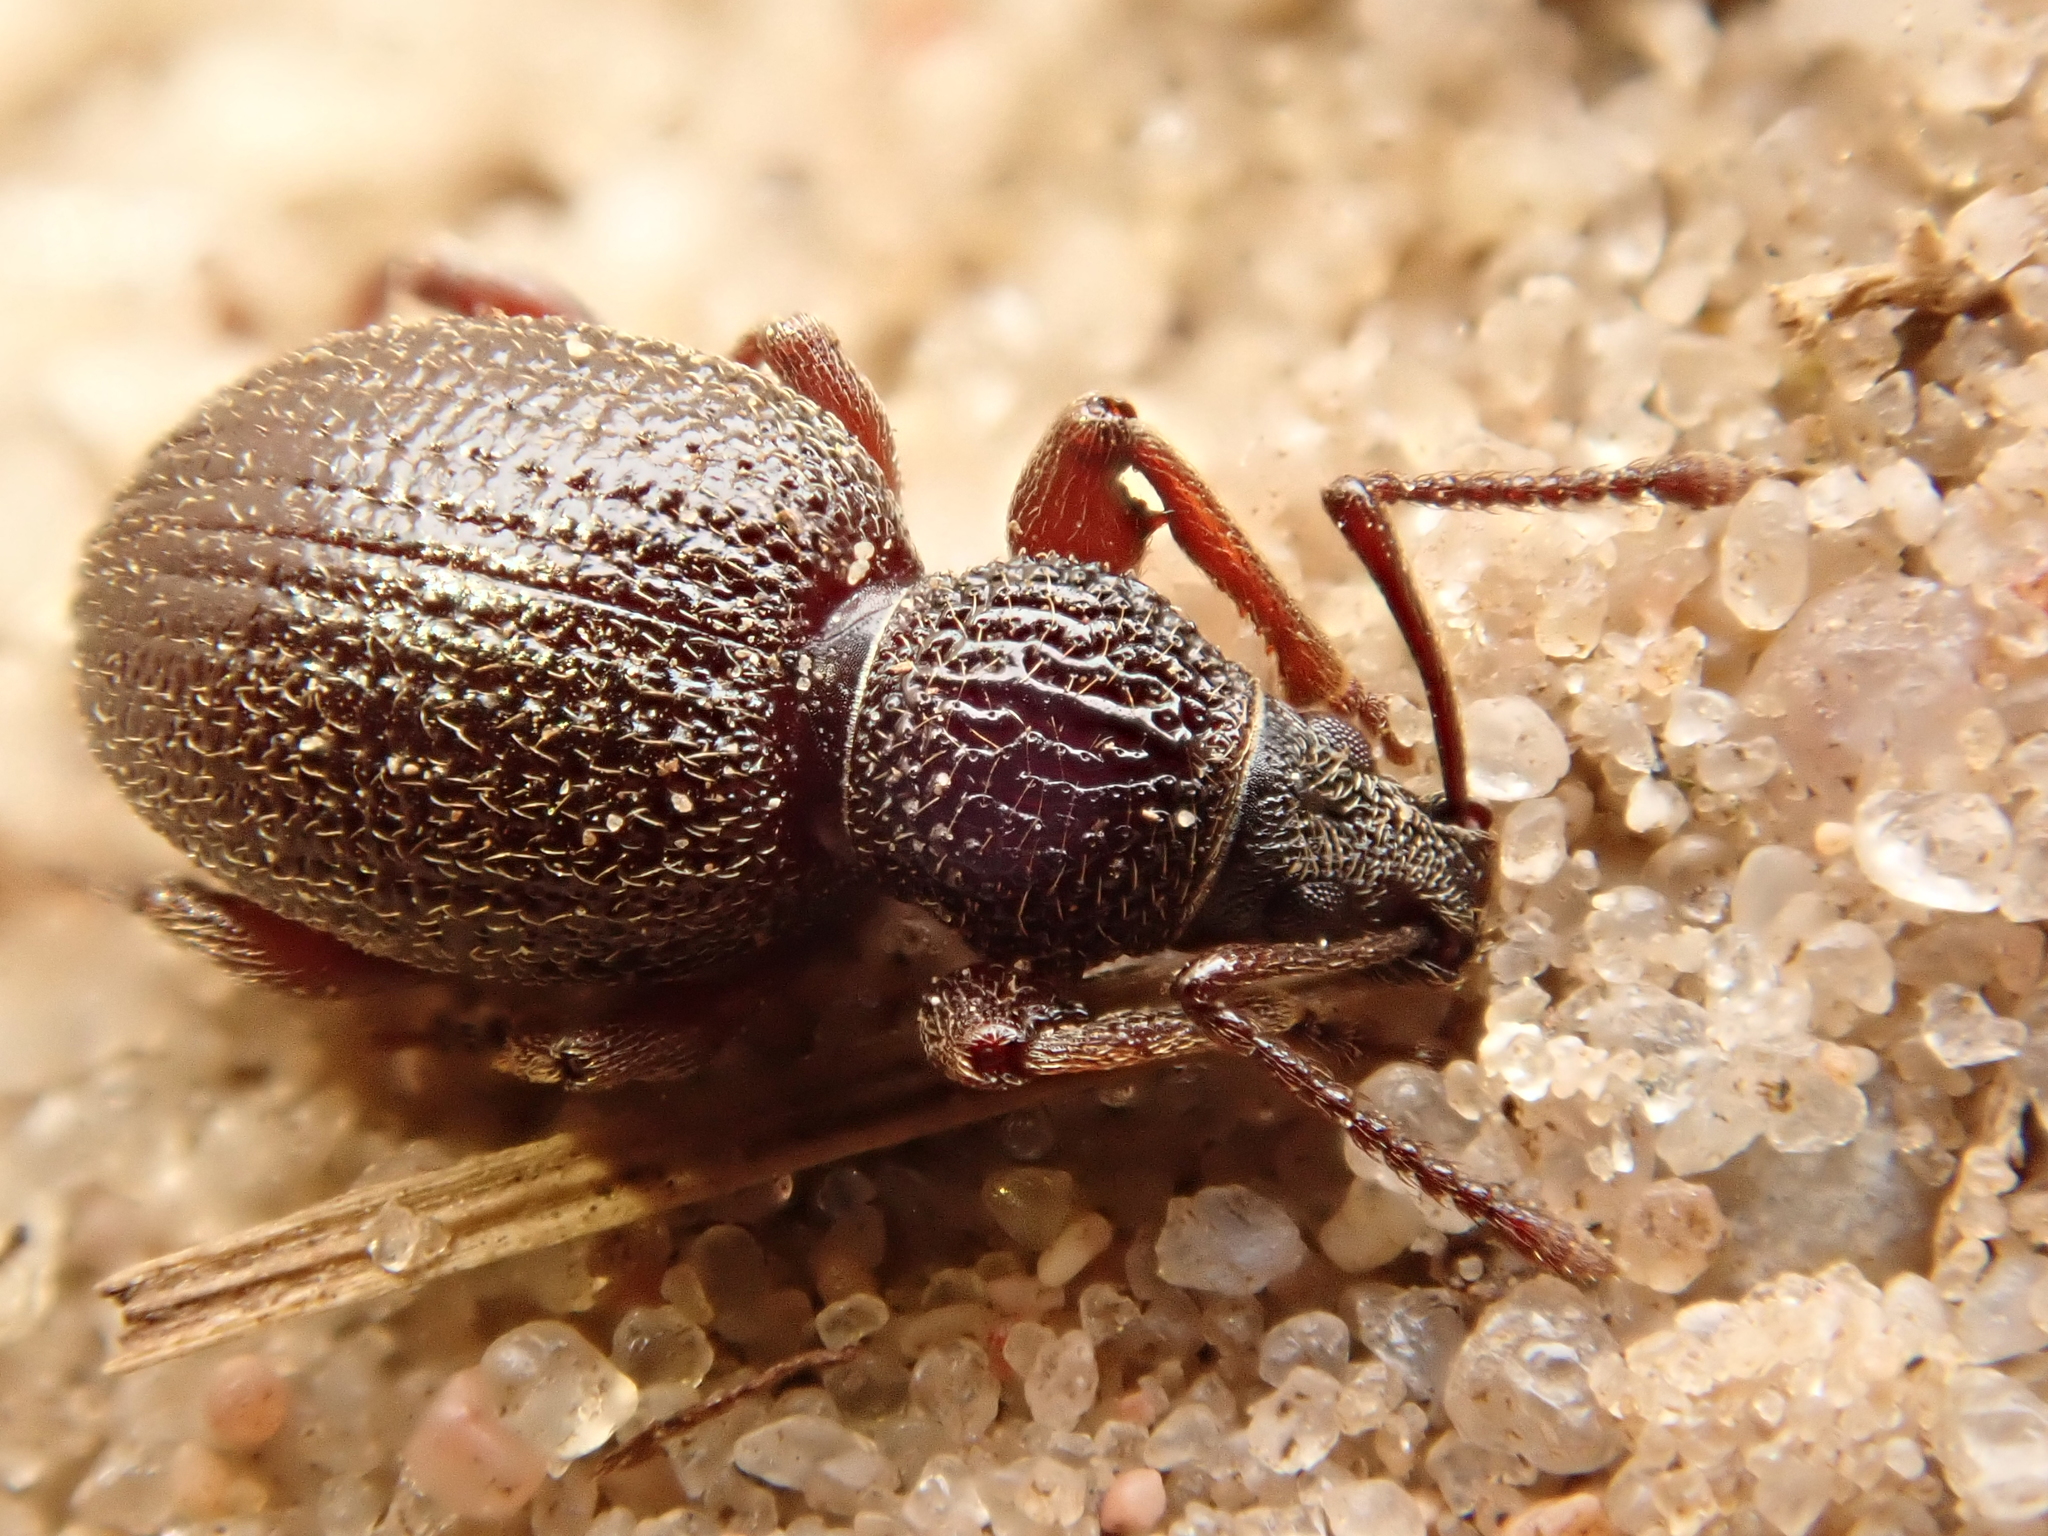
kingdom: Animalia
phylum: Arthropoda
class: Insecta
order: Coleoptera
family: Curculionidae
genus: Otiorhynchus
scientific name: Otiorhynchus ovatus
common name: Strawberry root weevil
